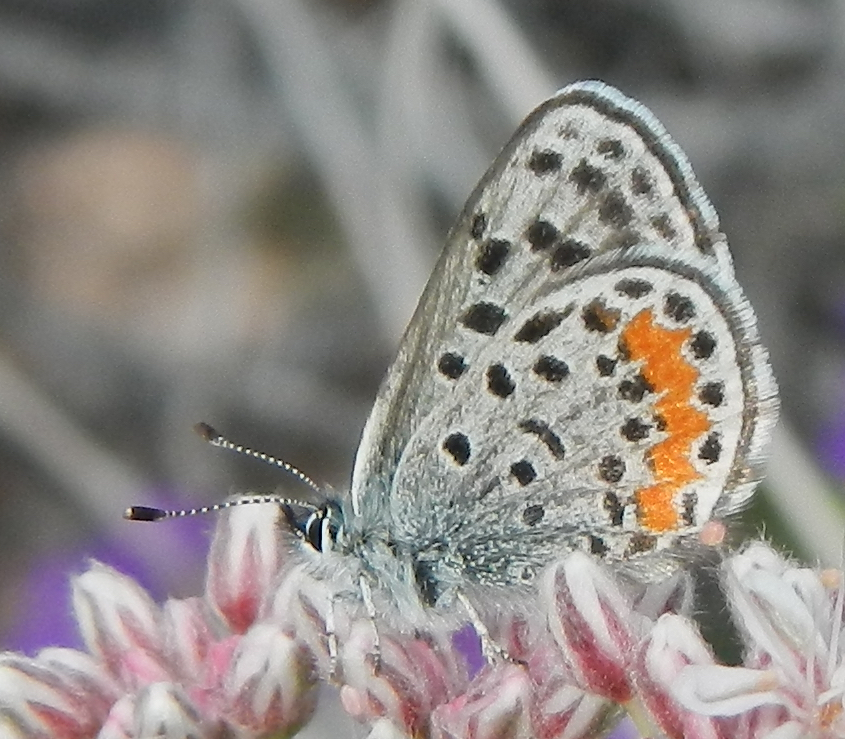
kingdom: Animalia
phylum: Arthropoda
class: Insecta
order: Lepidoptera
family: Lycaenidae
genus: Philotes
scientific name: Philotes bernardino
